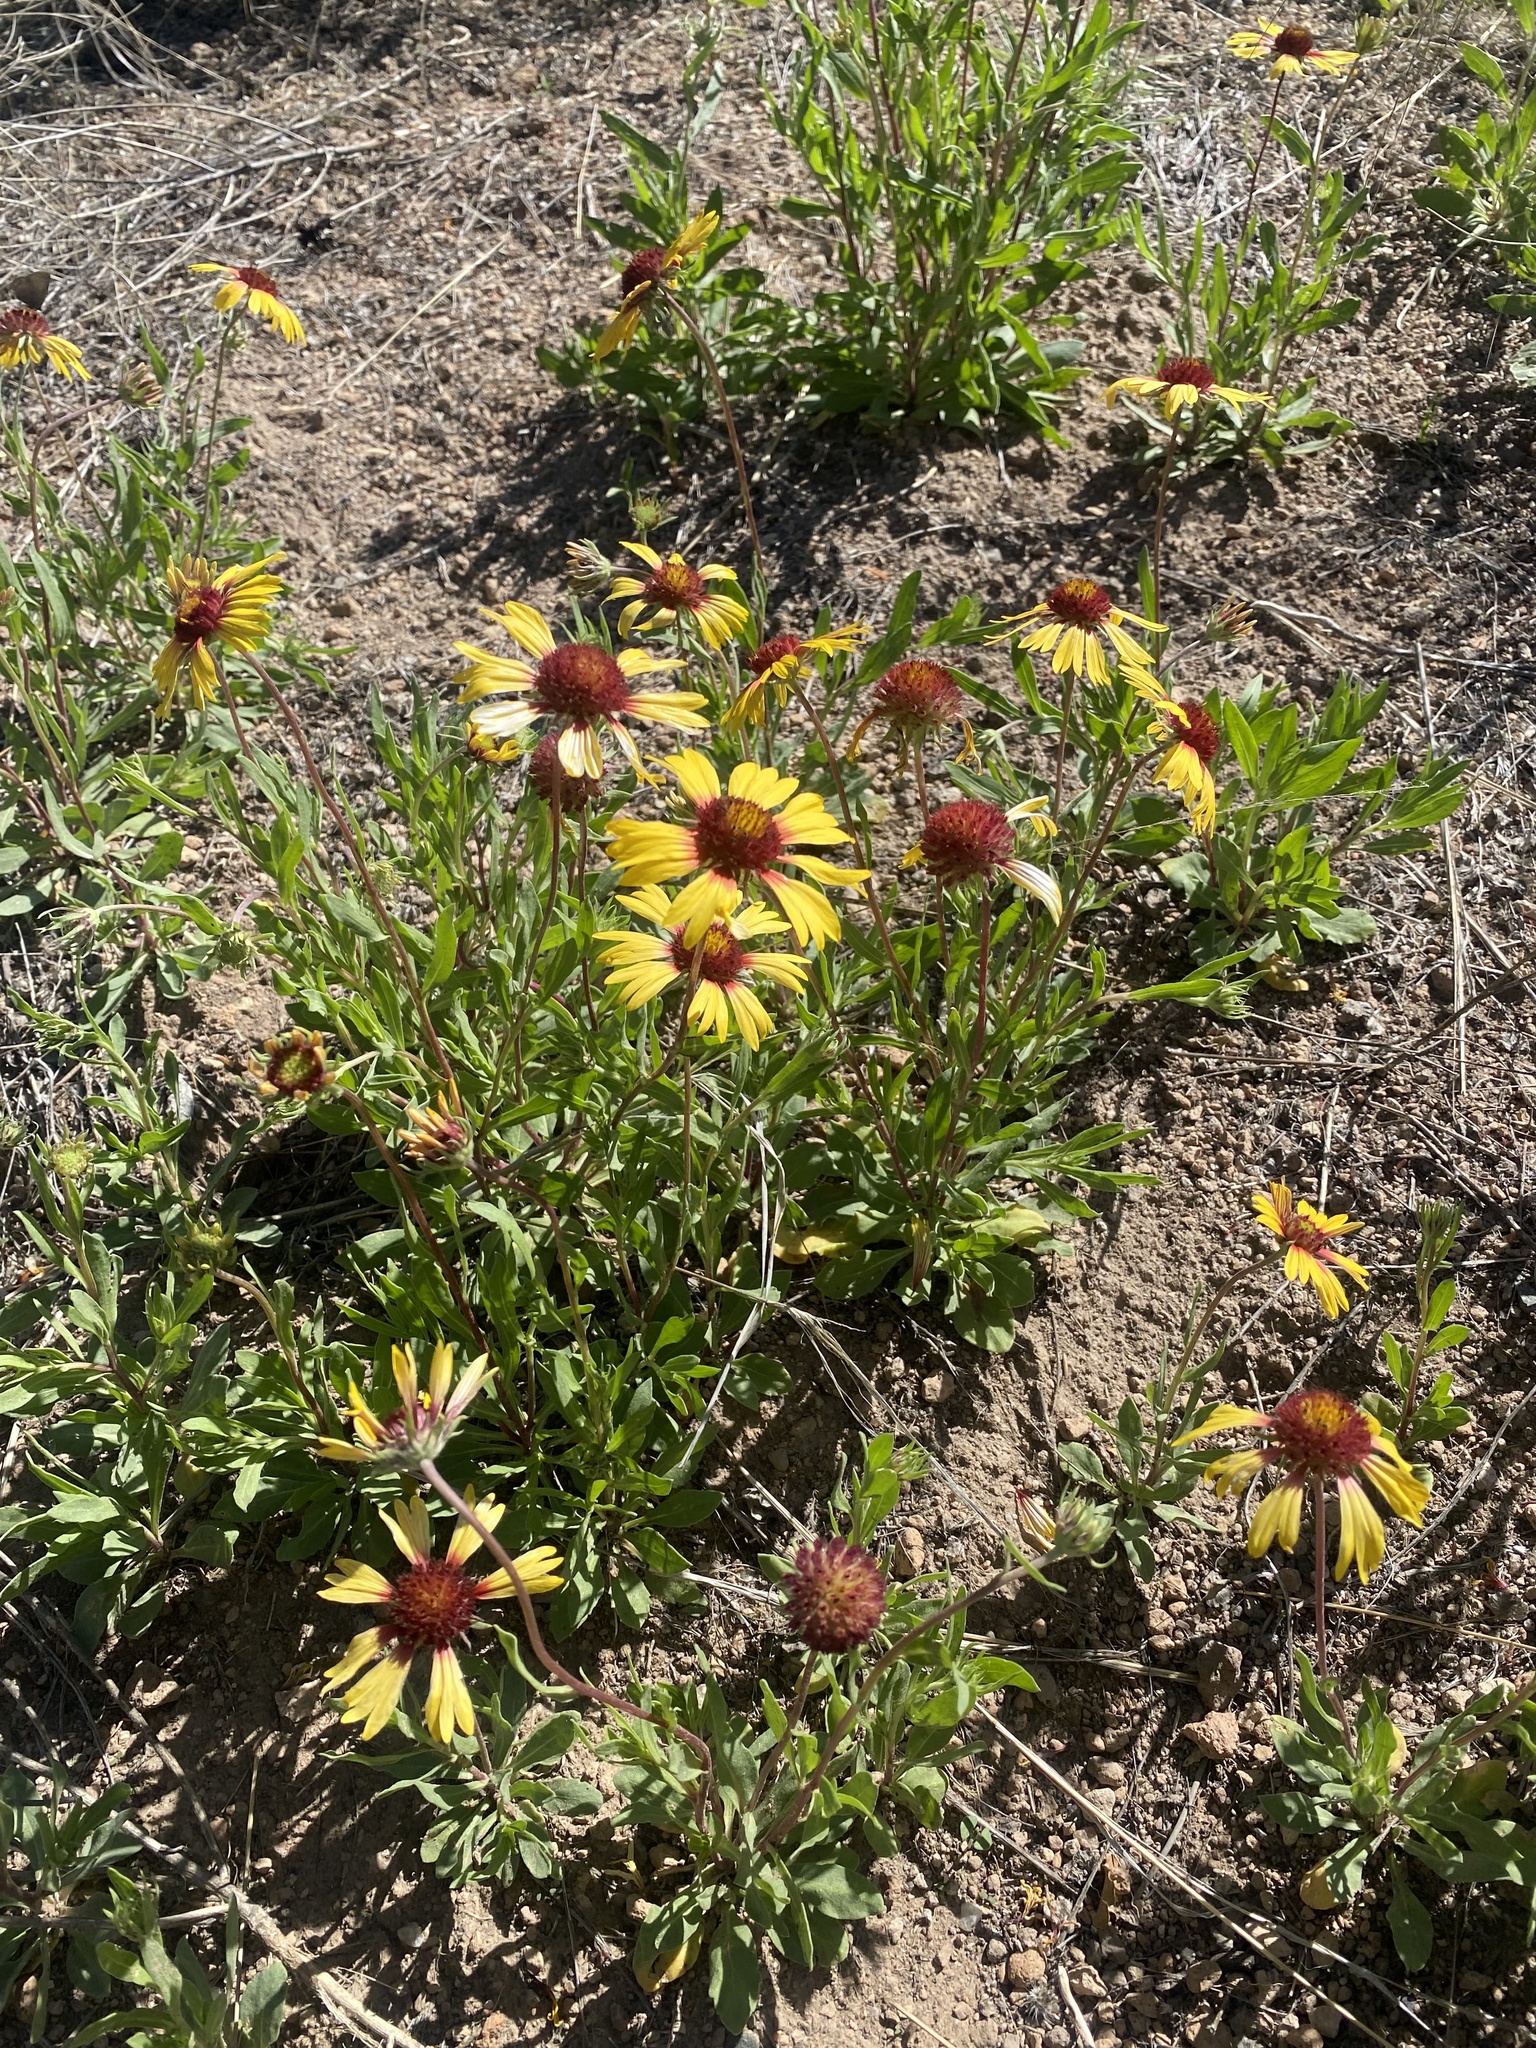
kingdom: Plantae
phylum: Tracheophyta
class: Magnoliopsida
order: Asterales
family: Asteraceae
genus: Gaillardia
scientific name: Gaillardia pinnatifida
